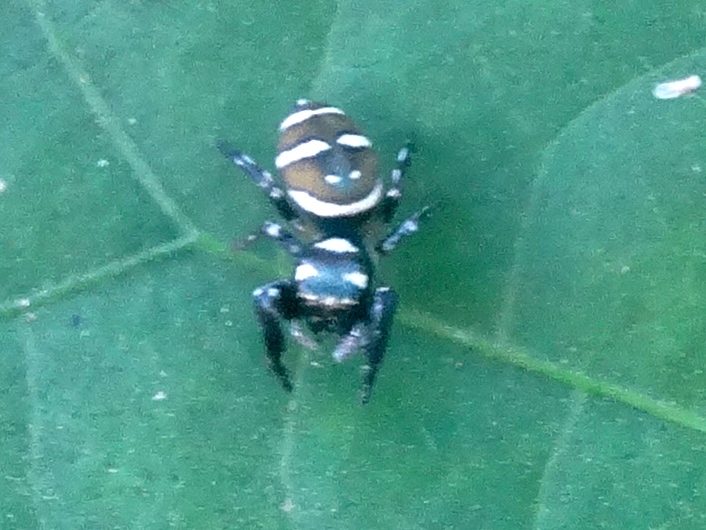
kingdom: Animalia
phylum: Arthropoda
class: Arachnida
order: Araneae
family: Salticidae
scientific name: Salticidae
